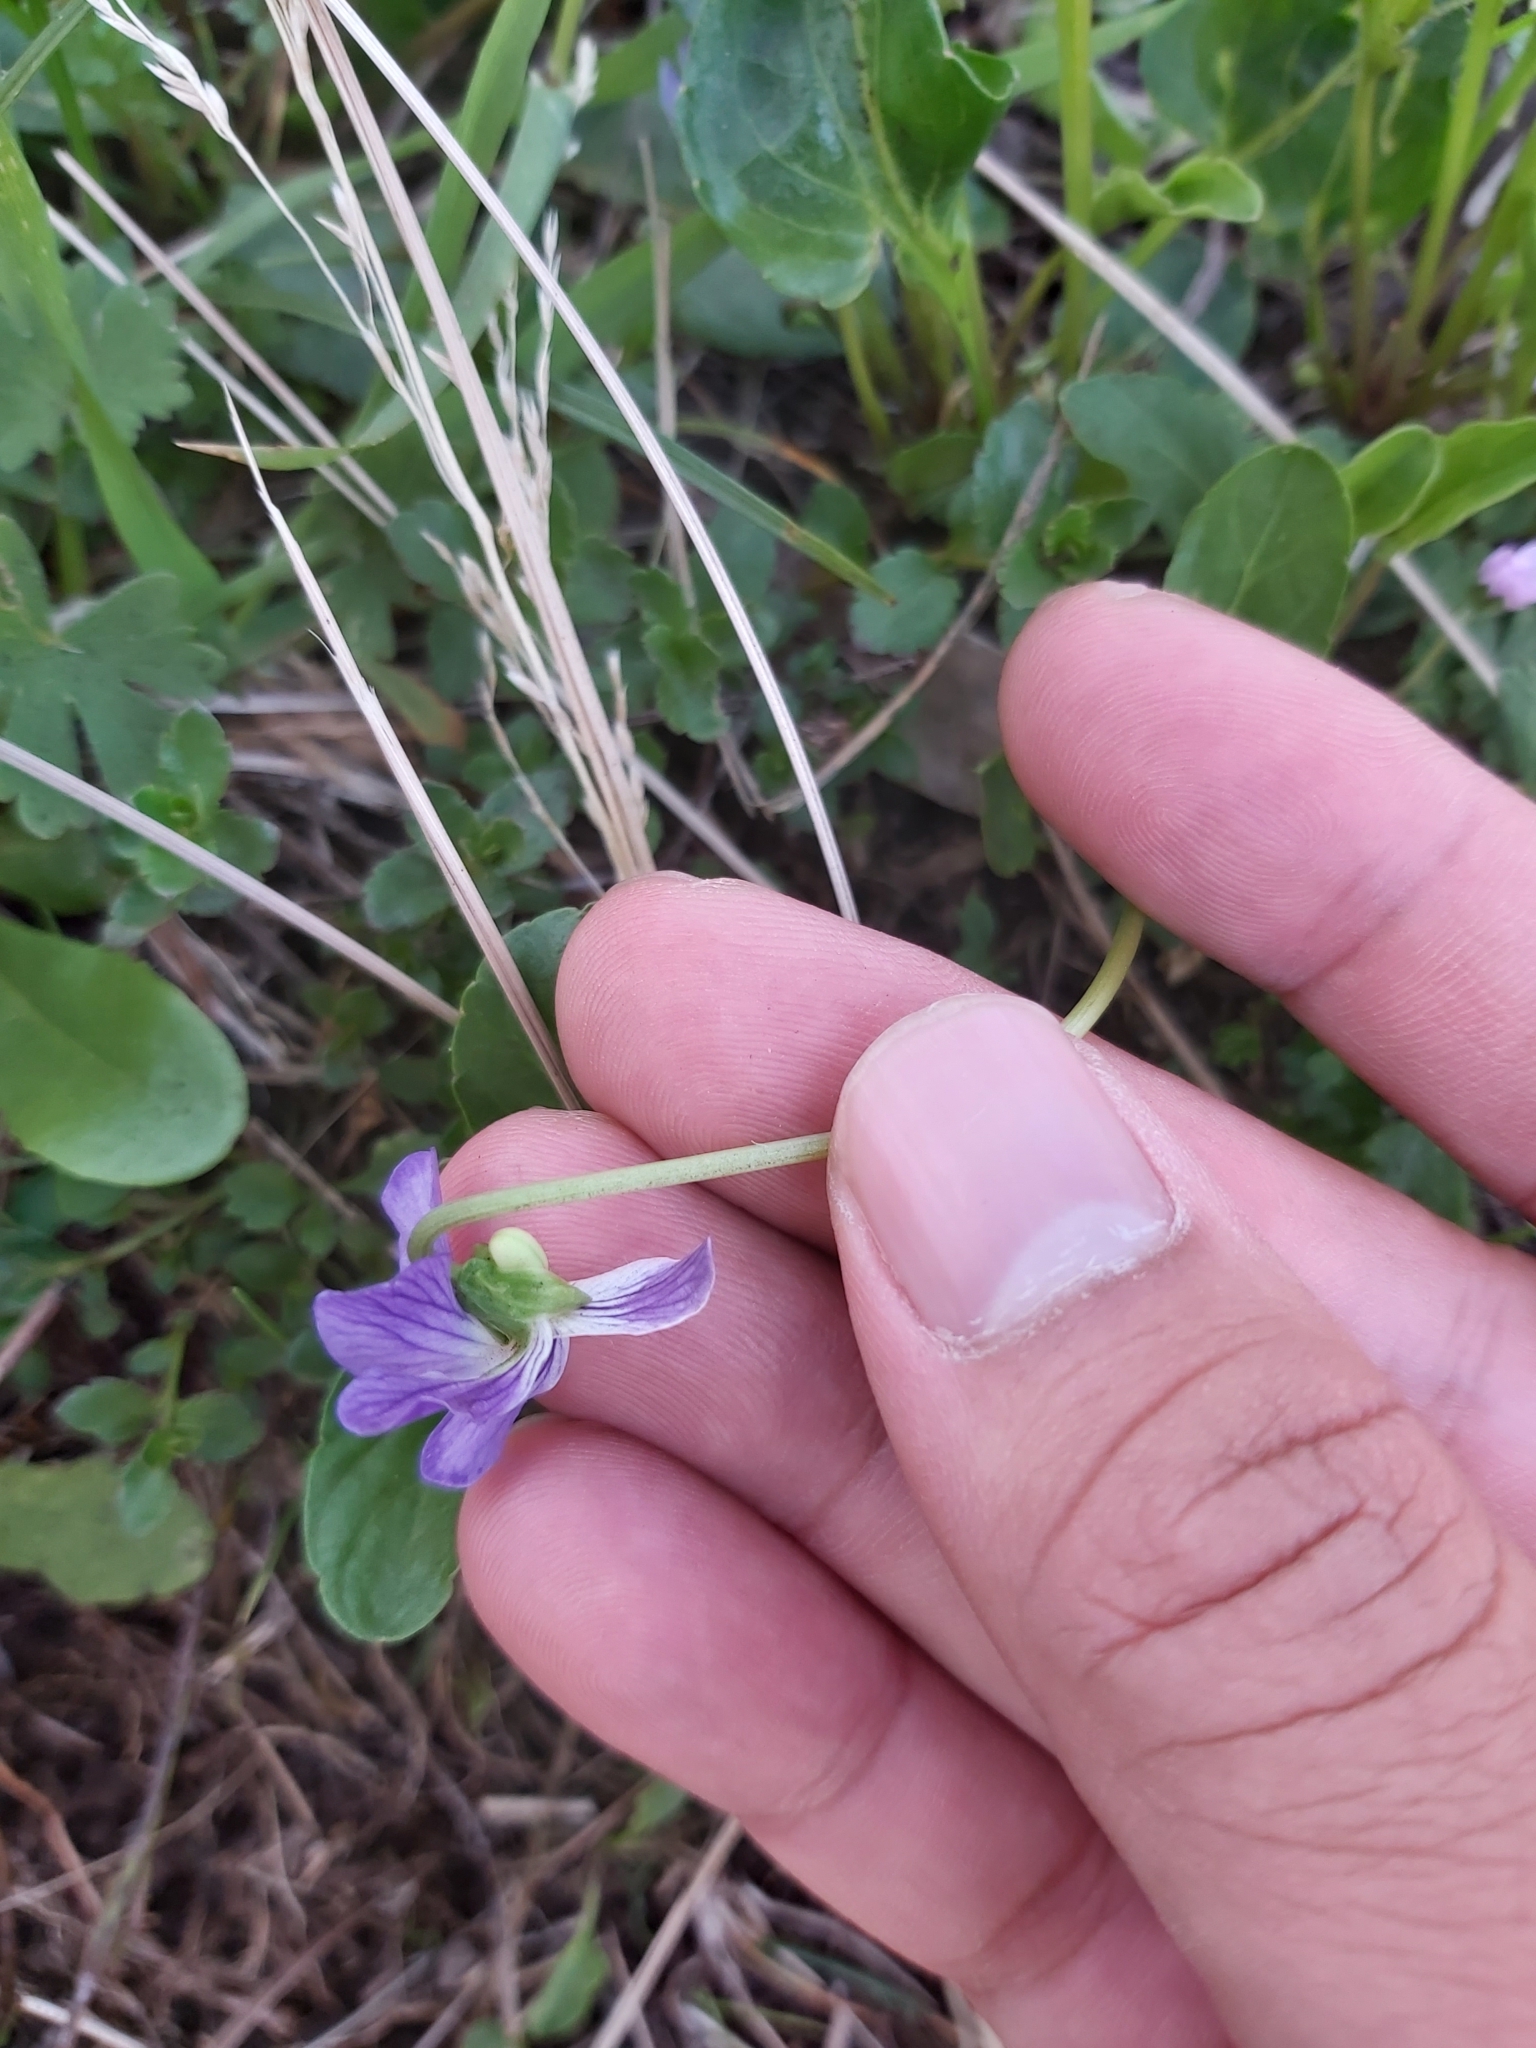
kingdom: Plantae
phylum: Tracheophyta
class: Magnoliopsida
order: Malpighiales
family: Violaceae
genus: Viola
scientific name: Viola betonicifolia
